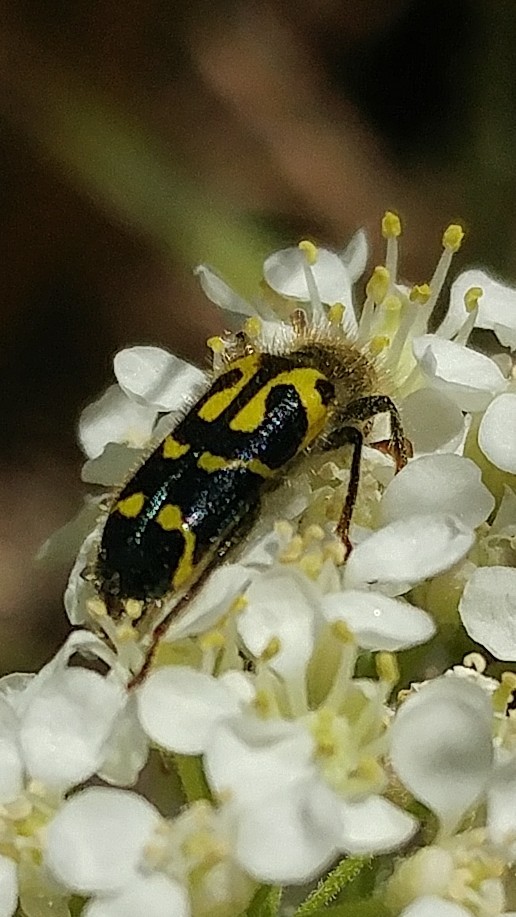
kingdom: Animalia
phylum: Arthropoda
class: Insecta
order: Coleoptera
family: Cleridae
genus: Trichodes
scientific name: Trichodes ornatus
